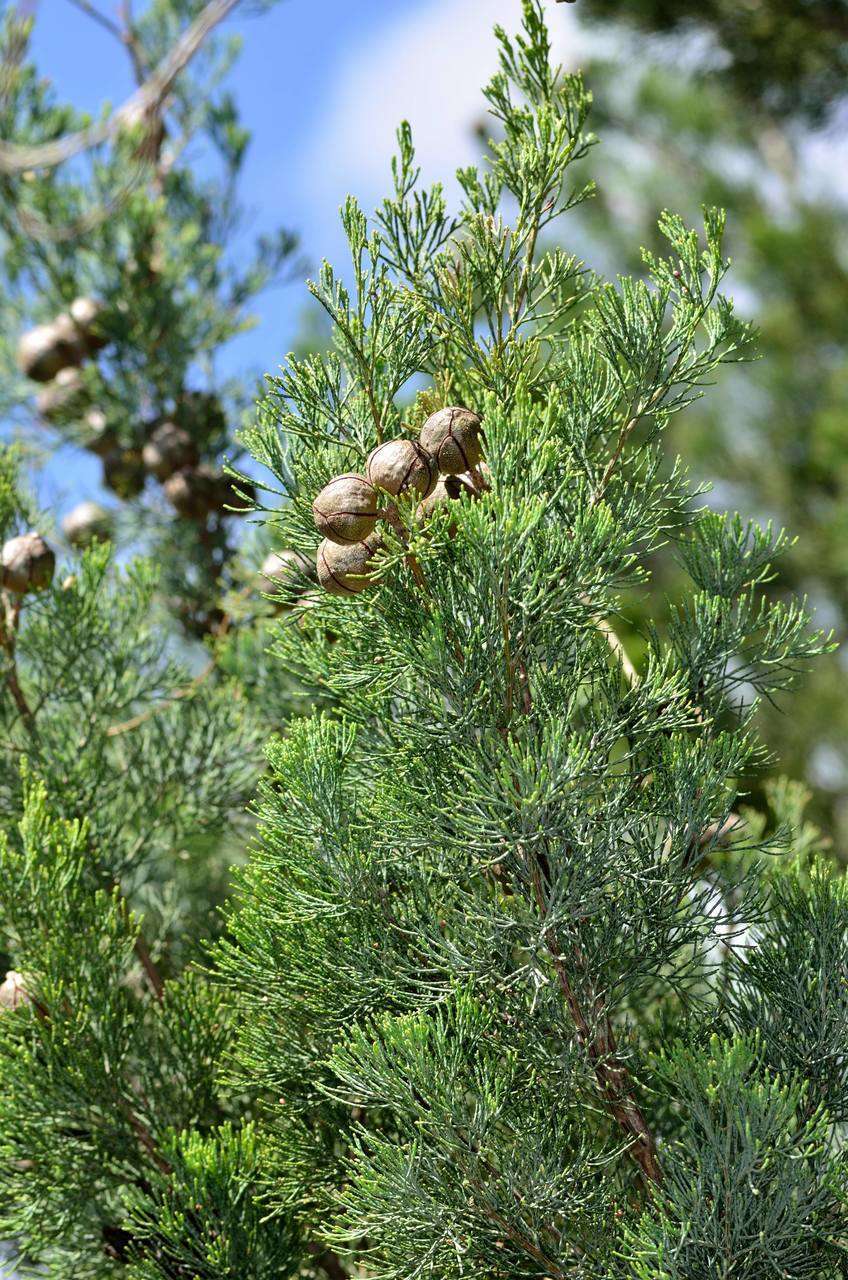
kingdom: Plantae
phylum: Tracheophyta
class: Pinopsida
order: Pinales
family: Cupressaceae
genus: Callitris
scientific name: Callitris columellaris
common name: White cypress-pine
